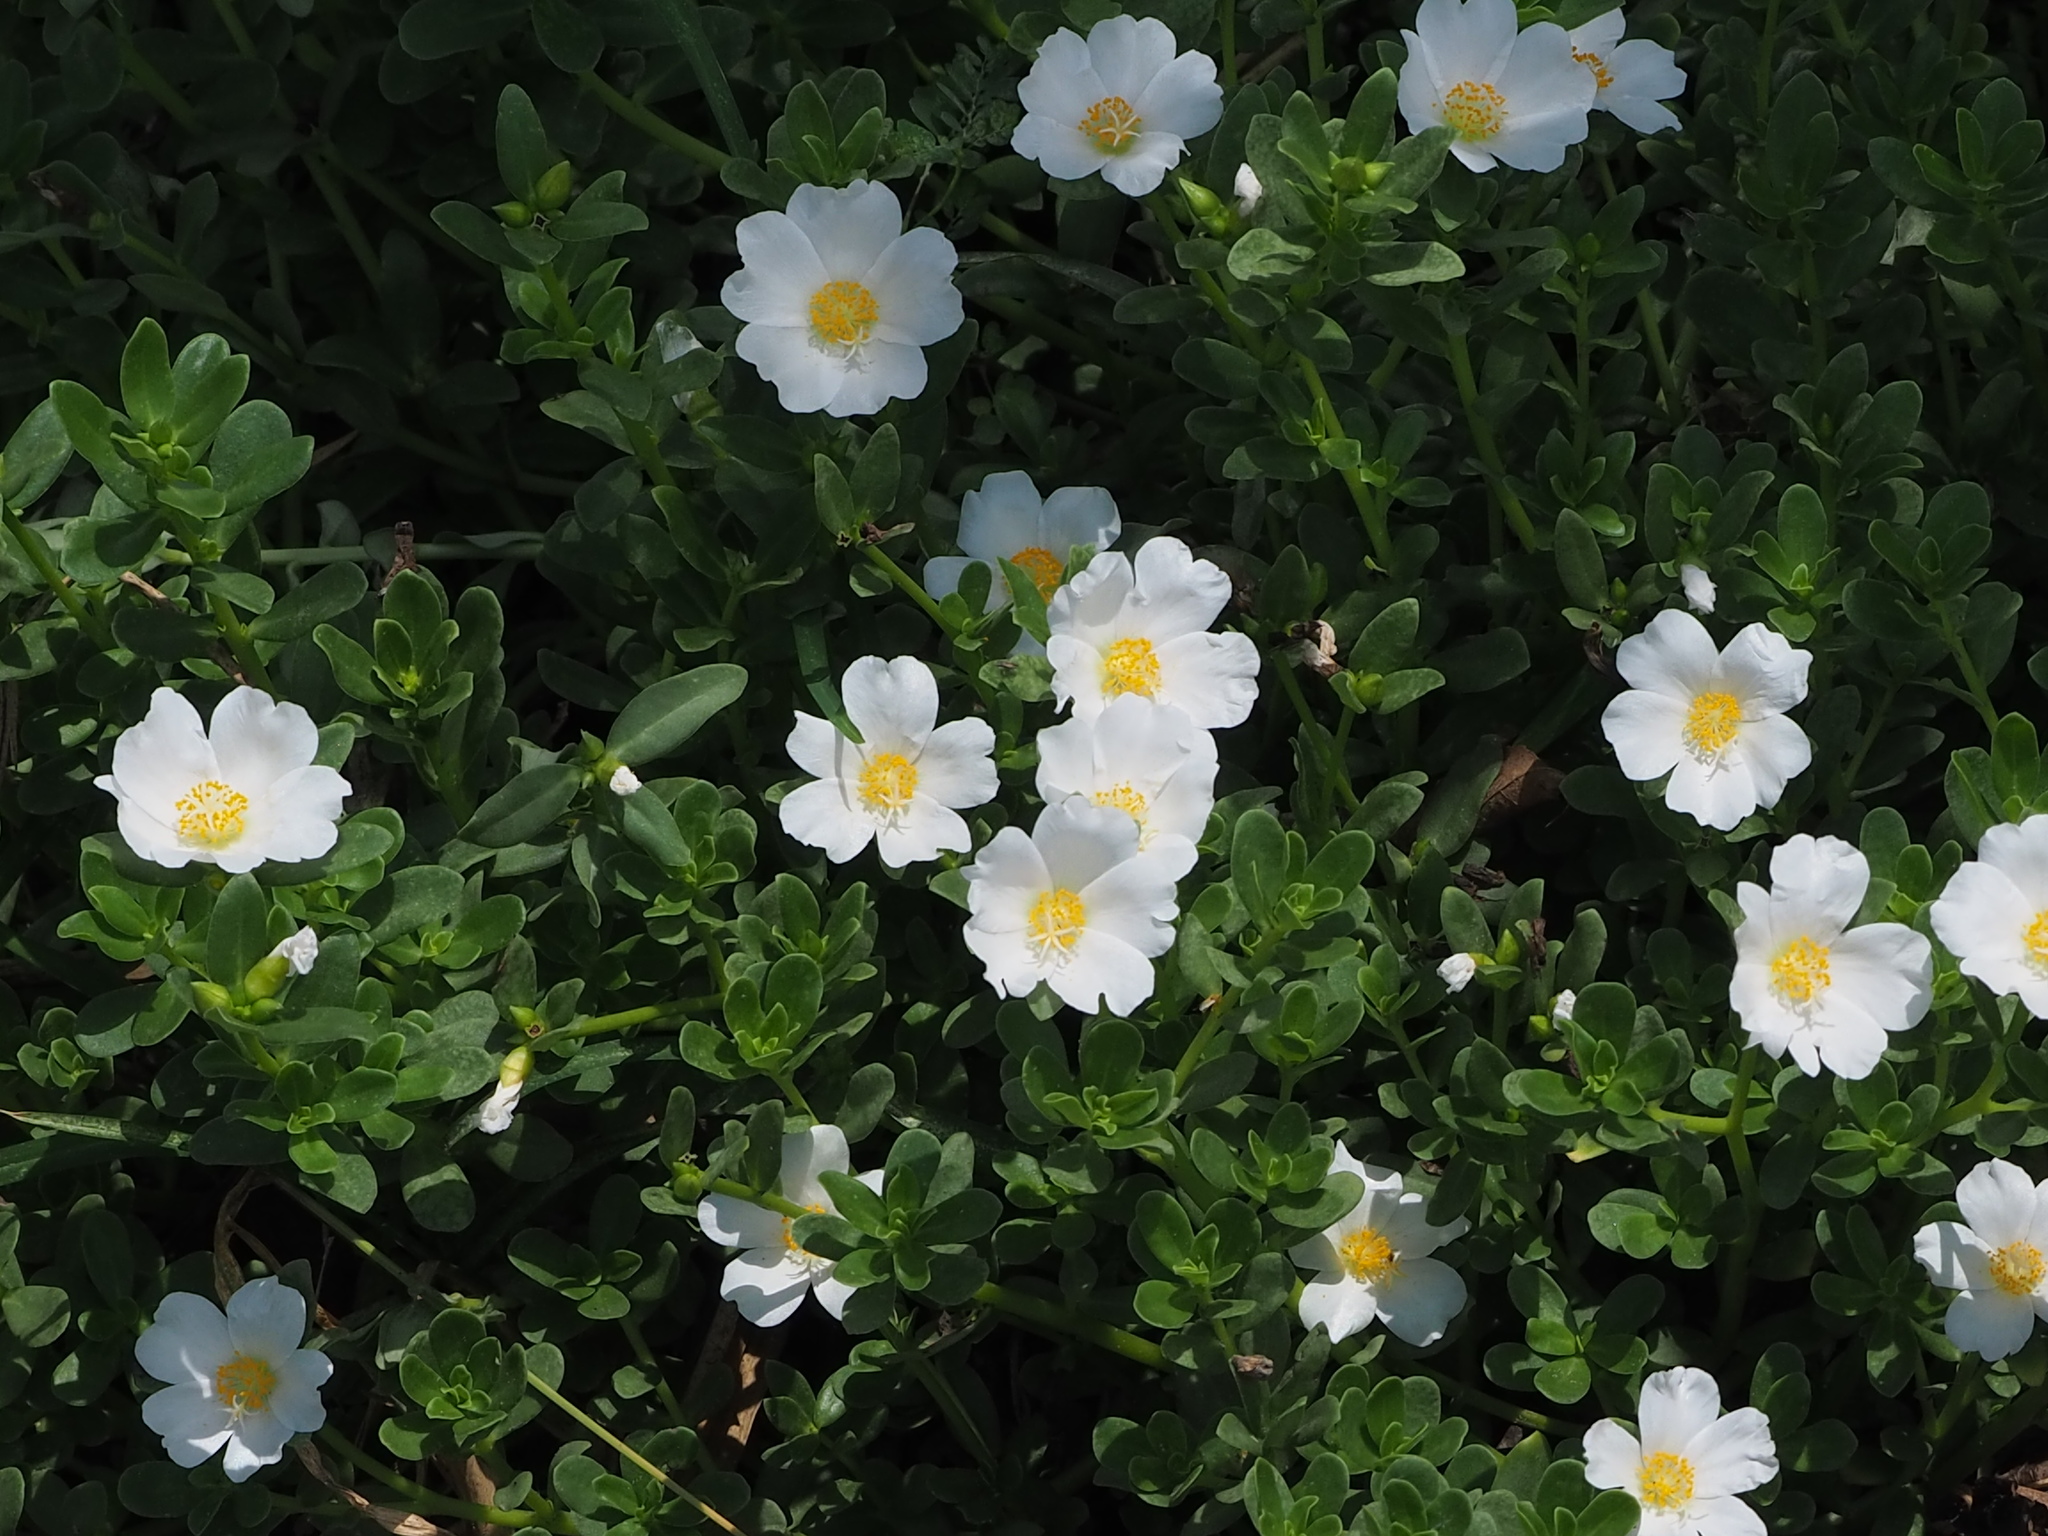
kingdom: Plantae
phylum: Tracheophyta
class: Magnoliopsida
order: Caryophyllales
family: Portulacaceae
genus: Portulaca
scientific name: Portulaca umbraticola
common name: Wingpod purslane
